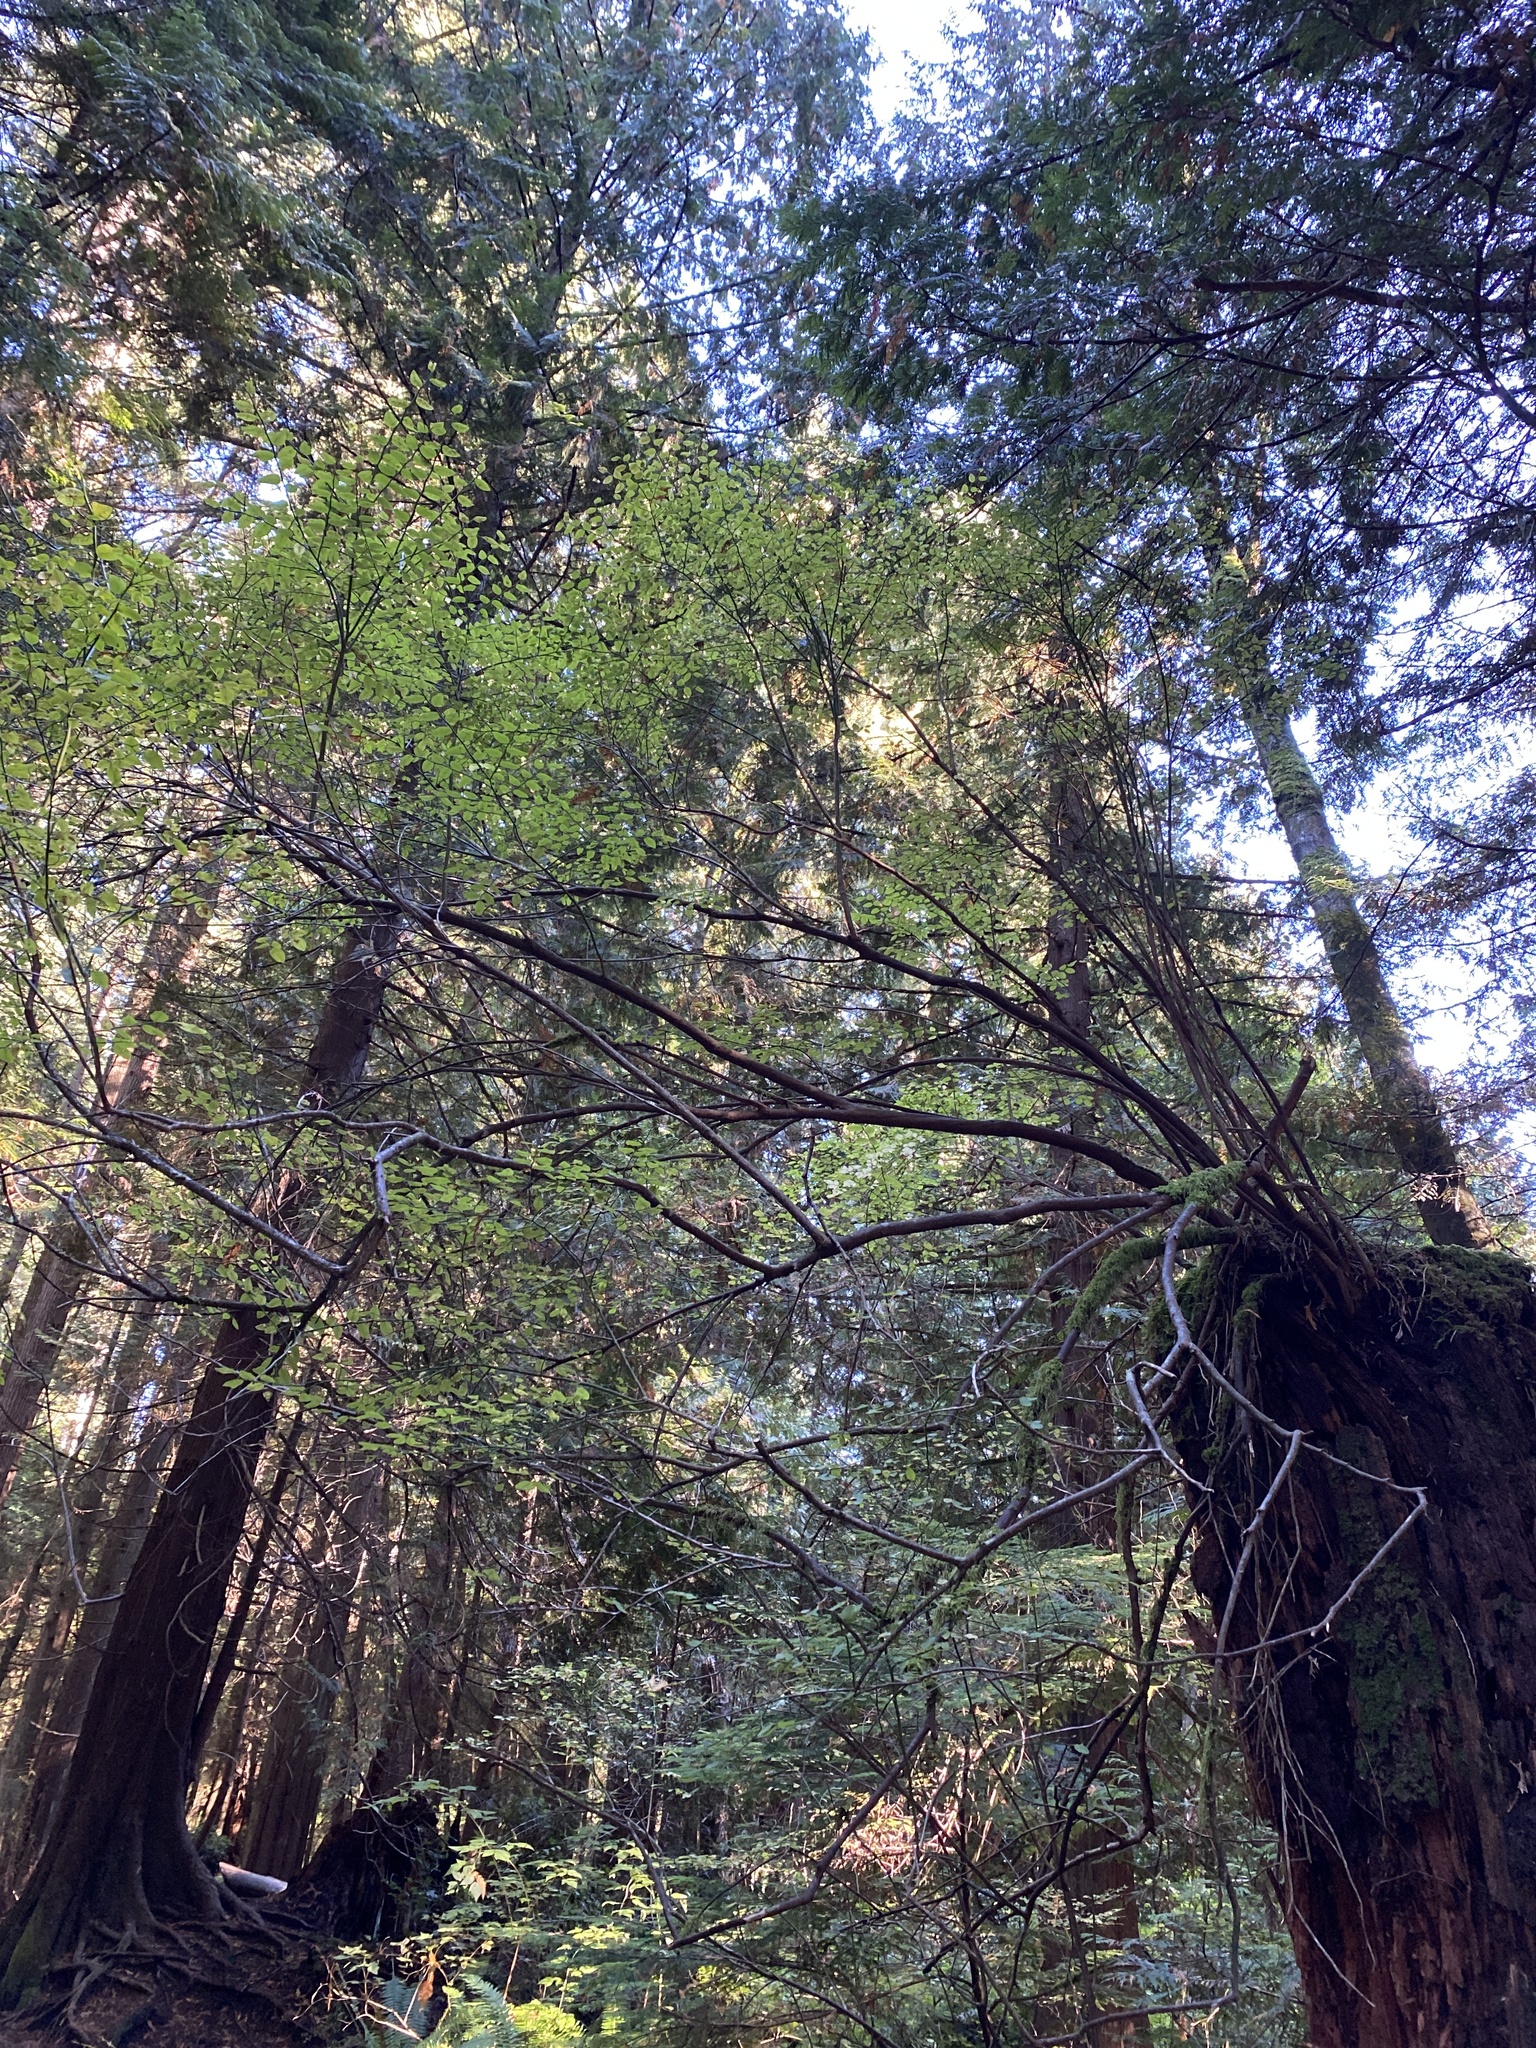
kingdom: Plantae
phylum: Tracheophyta
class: Magnoliopsida
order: Ericales
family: Ericaceae
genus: Vaccinium
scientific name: Vaccinium parvifolium
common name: Red-huckleberry
